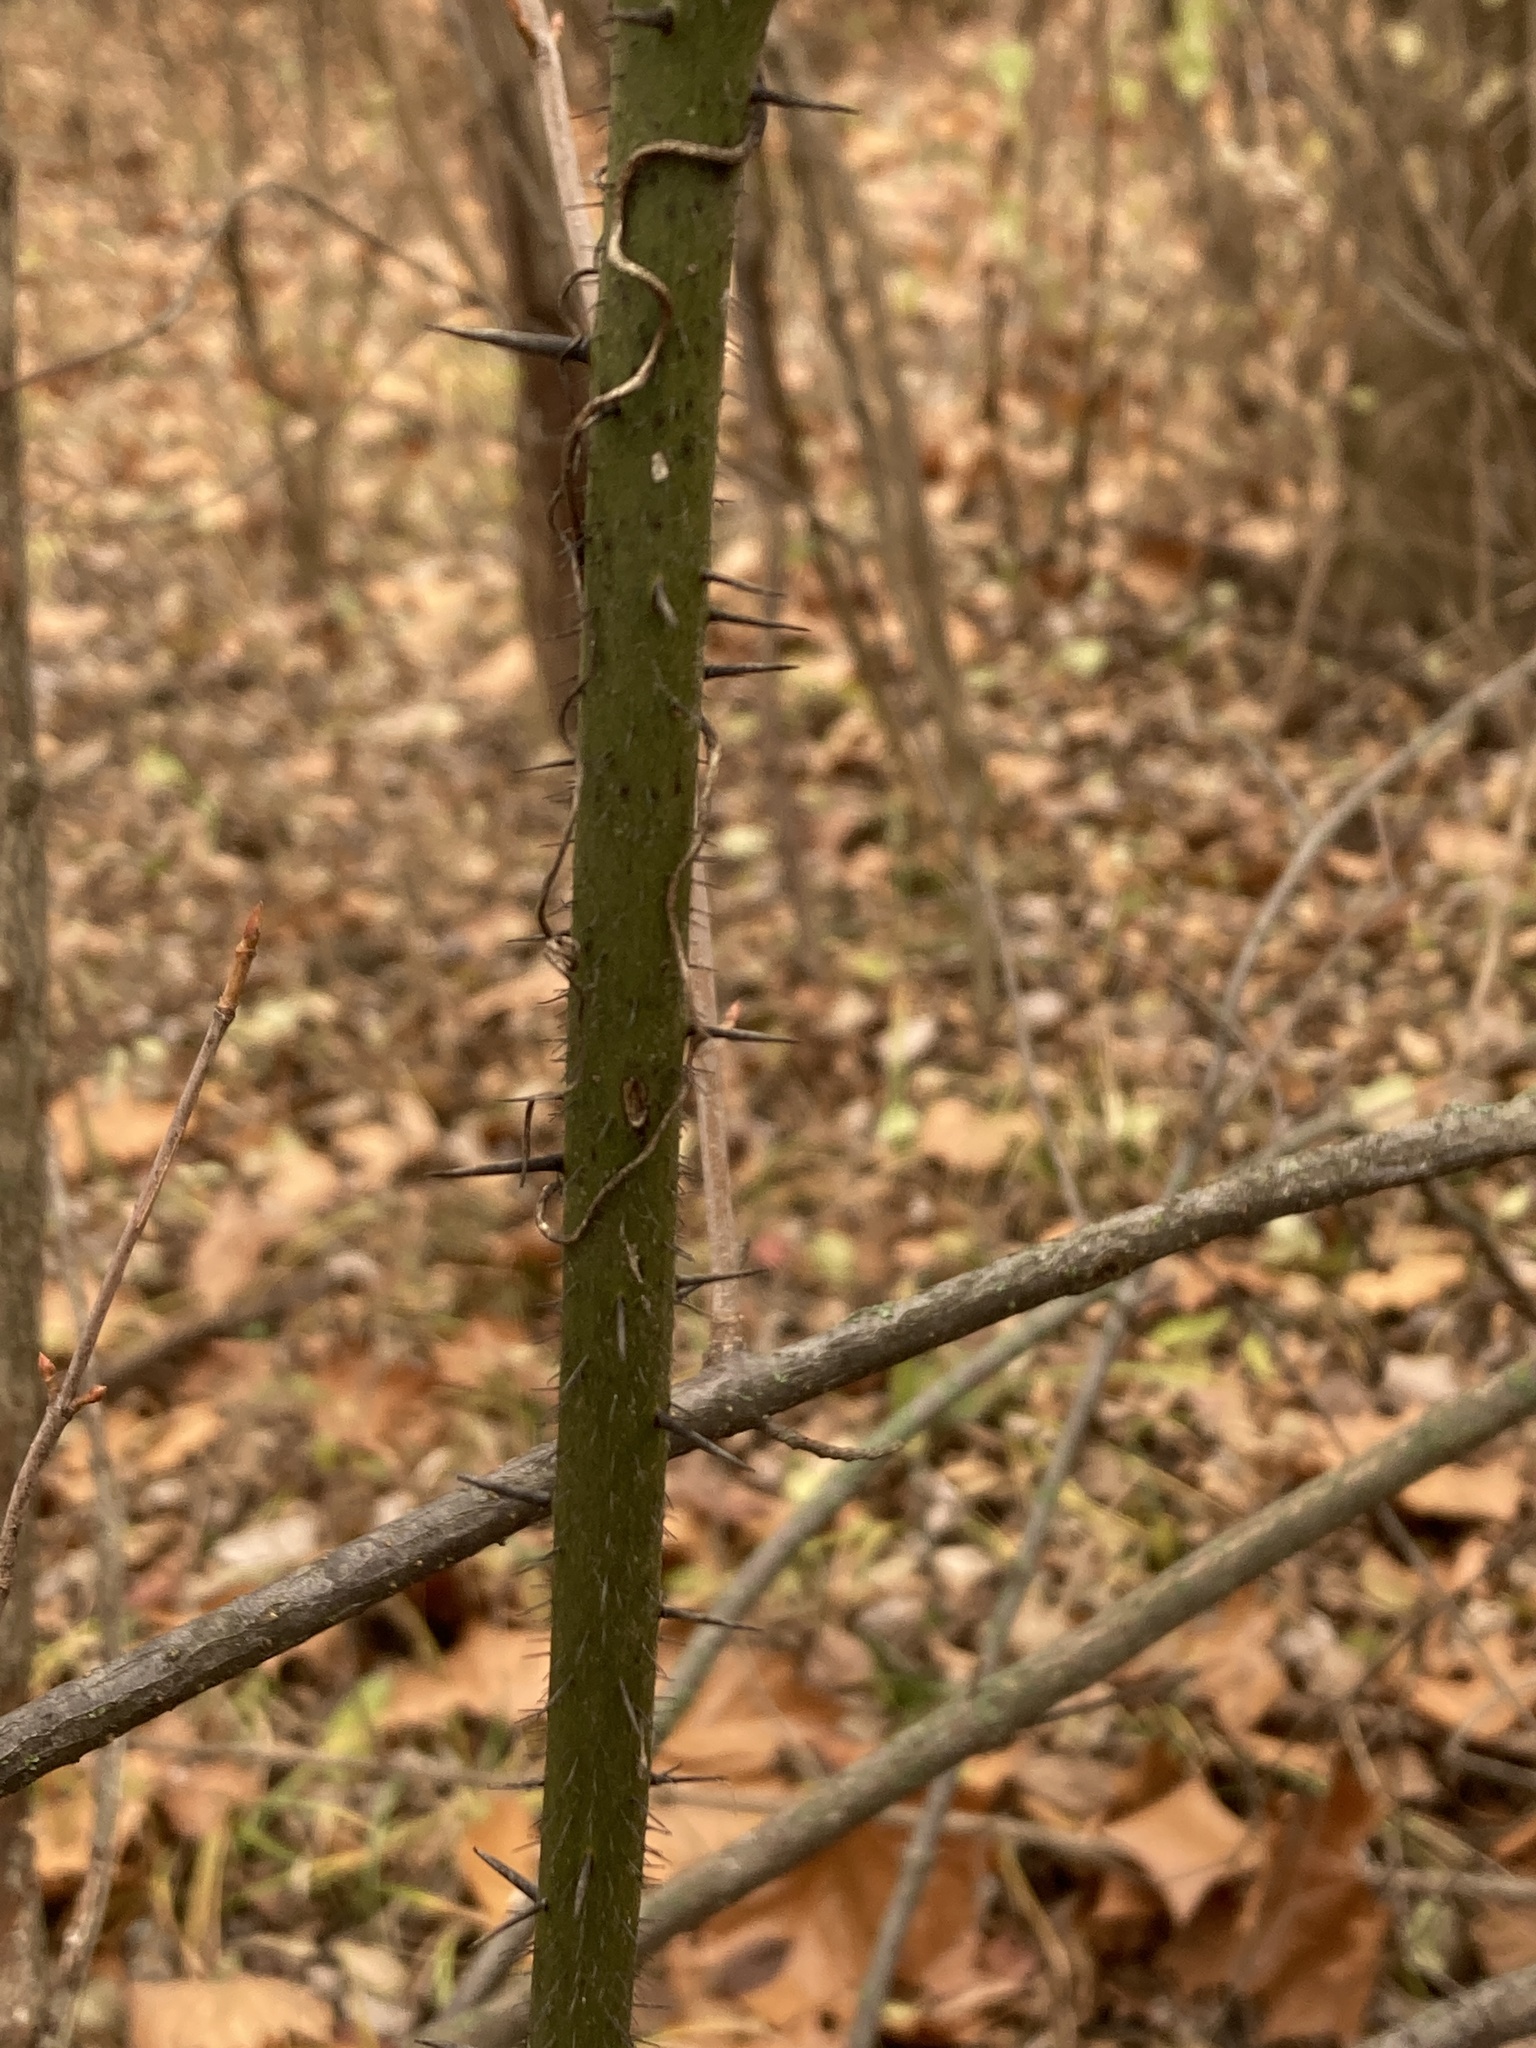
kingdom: Plantae
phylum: Tracheophyta
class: Liliopsida
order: Liliales
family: Smilacaceae
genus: Smilax
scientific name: Smilax tamnoides
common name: Hellfetter
